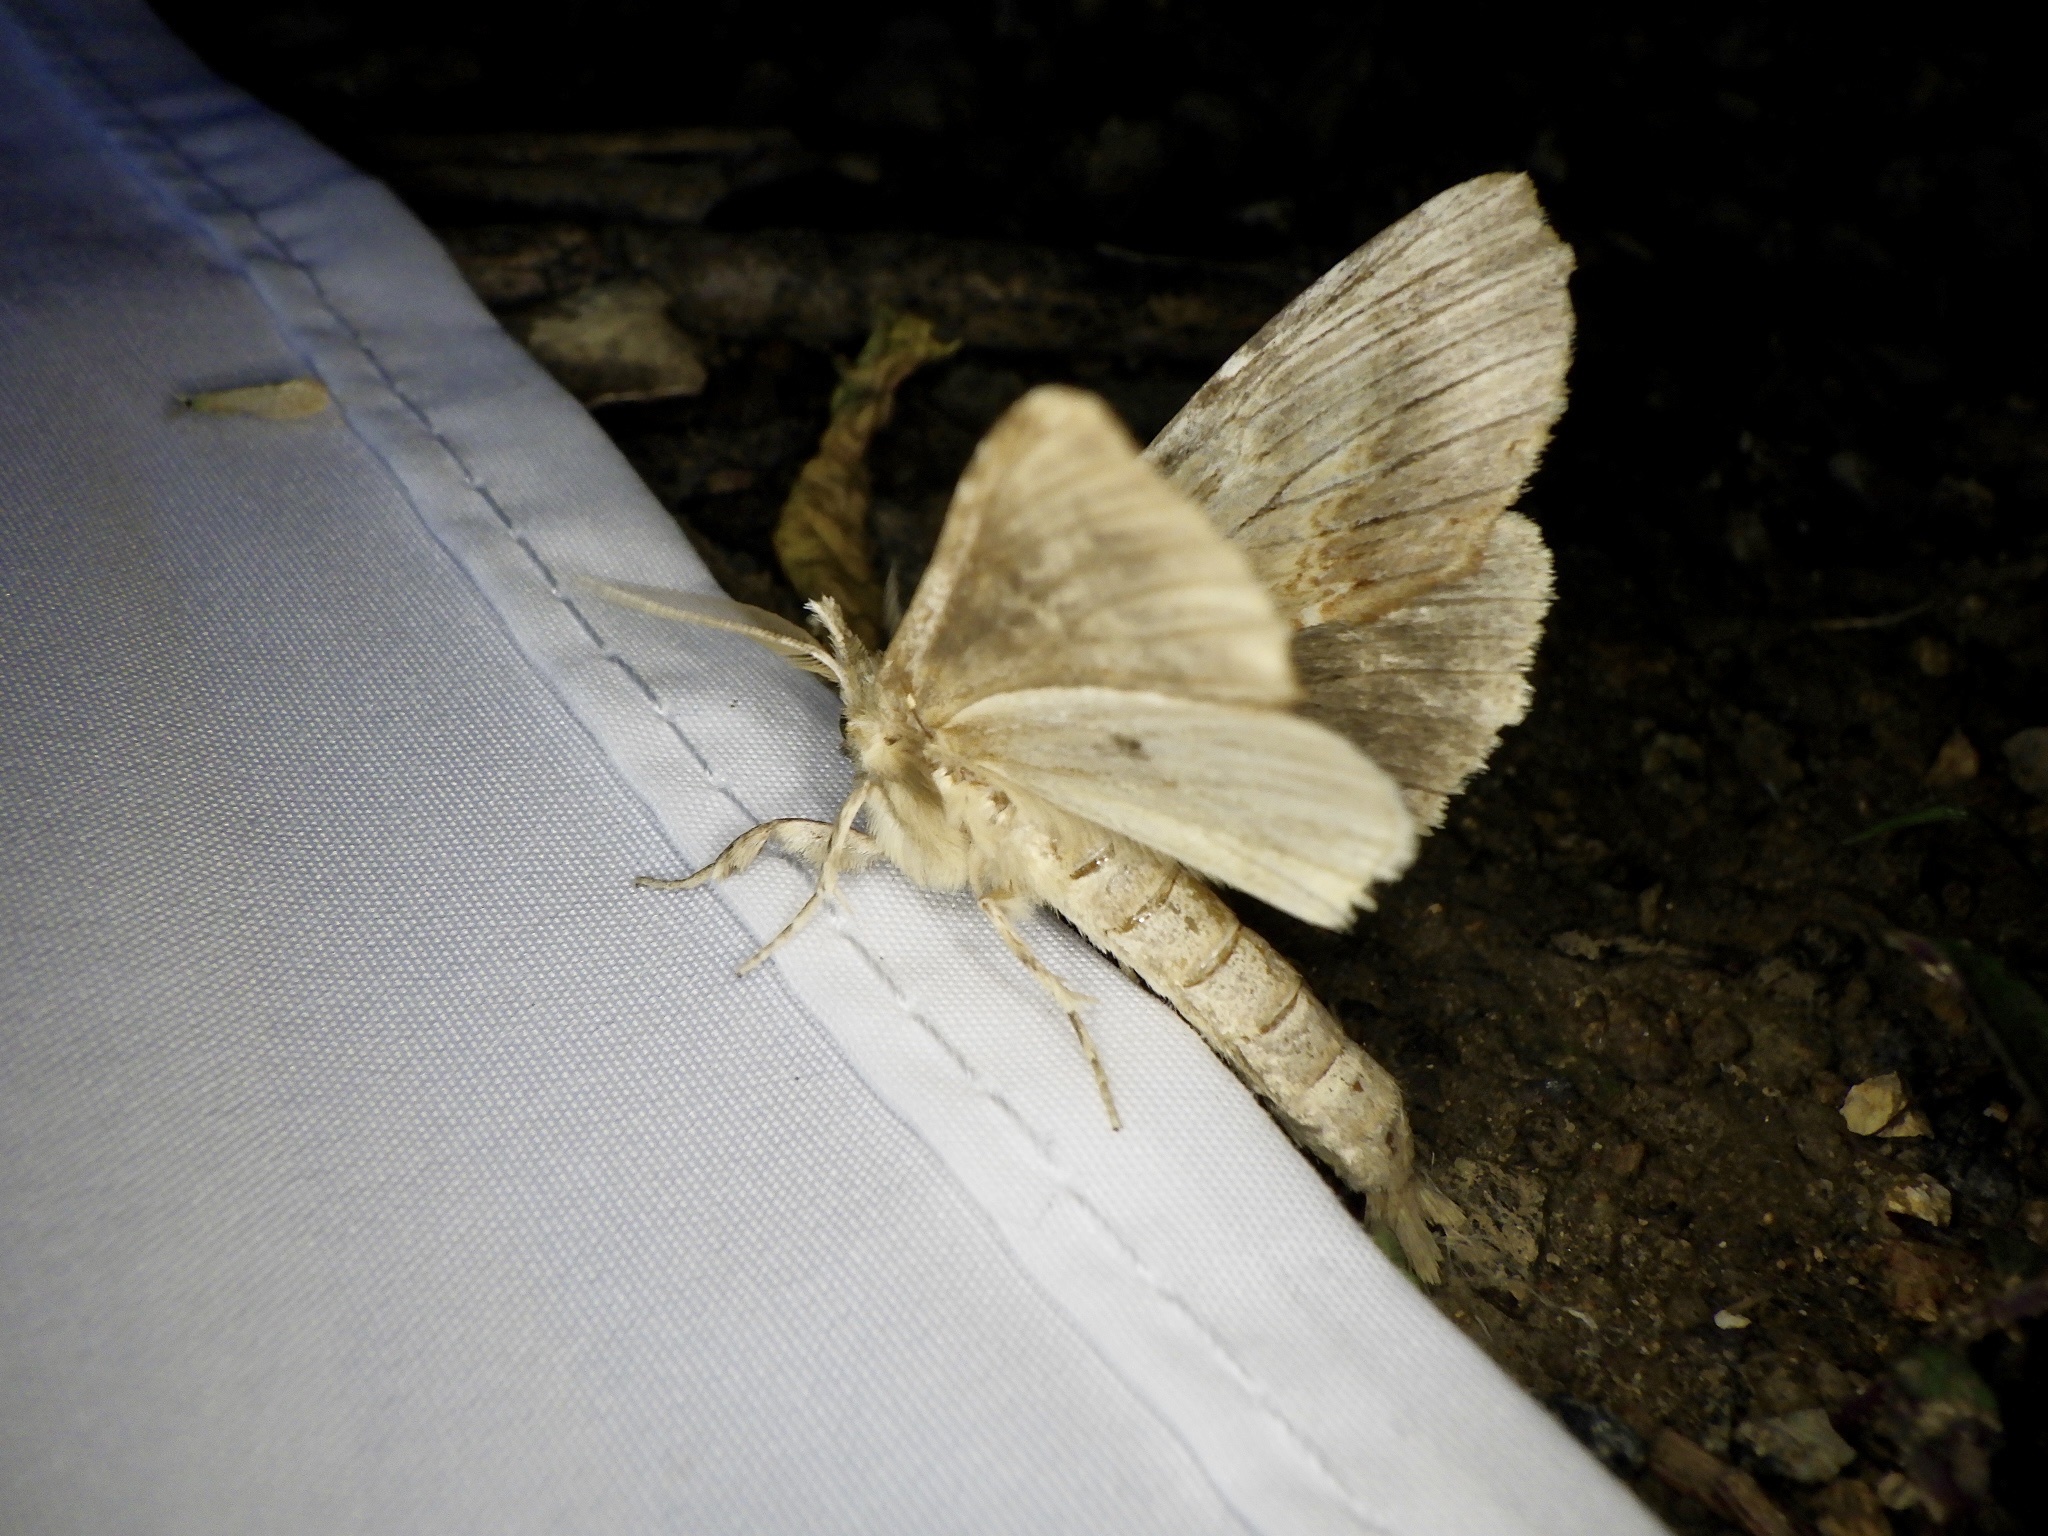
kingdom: Animalia
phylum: Arthropoda
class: Insecta
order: Lepidoptera
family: Notodontidae
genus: Pterostoma
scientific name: Pterostoma gigantina
